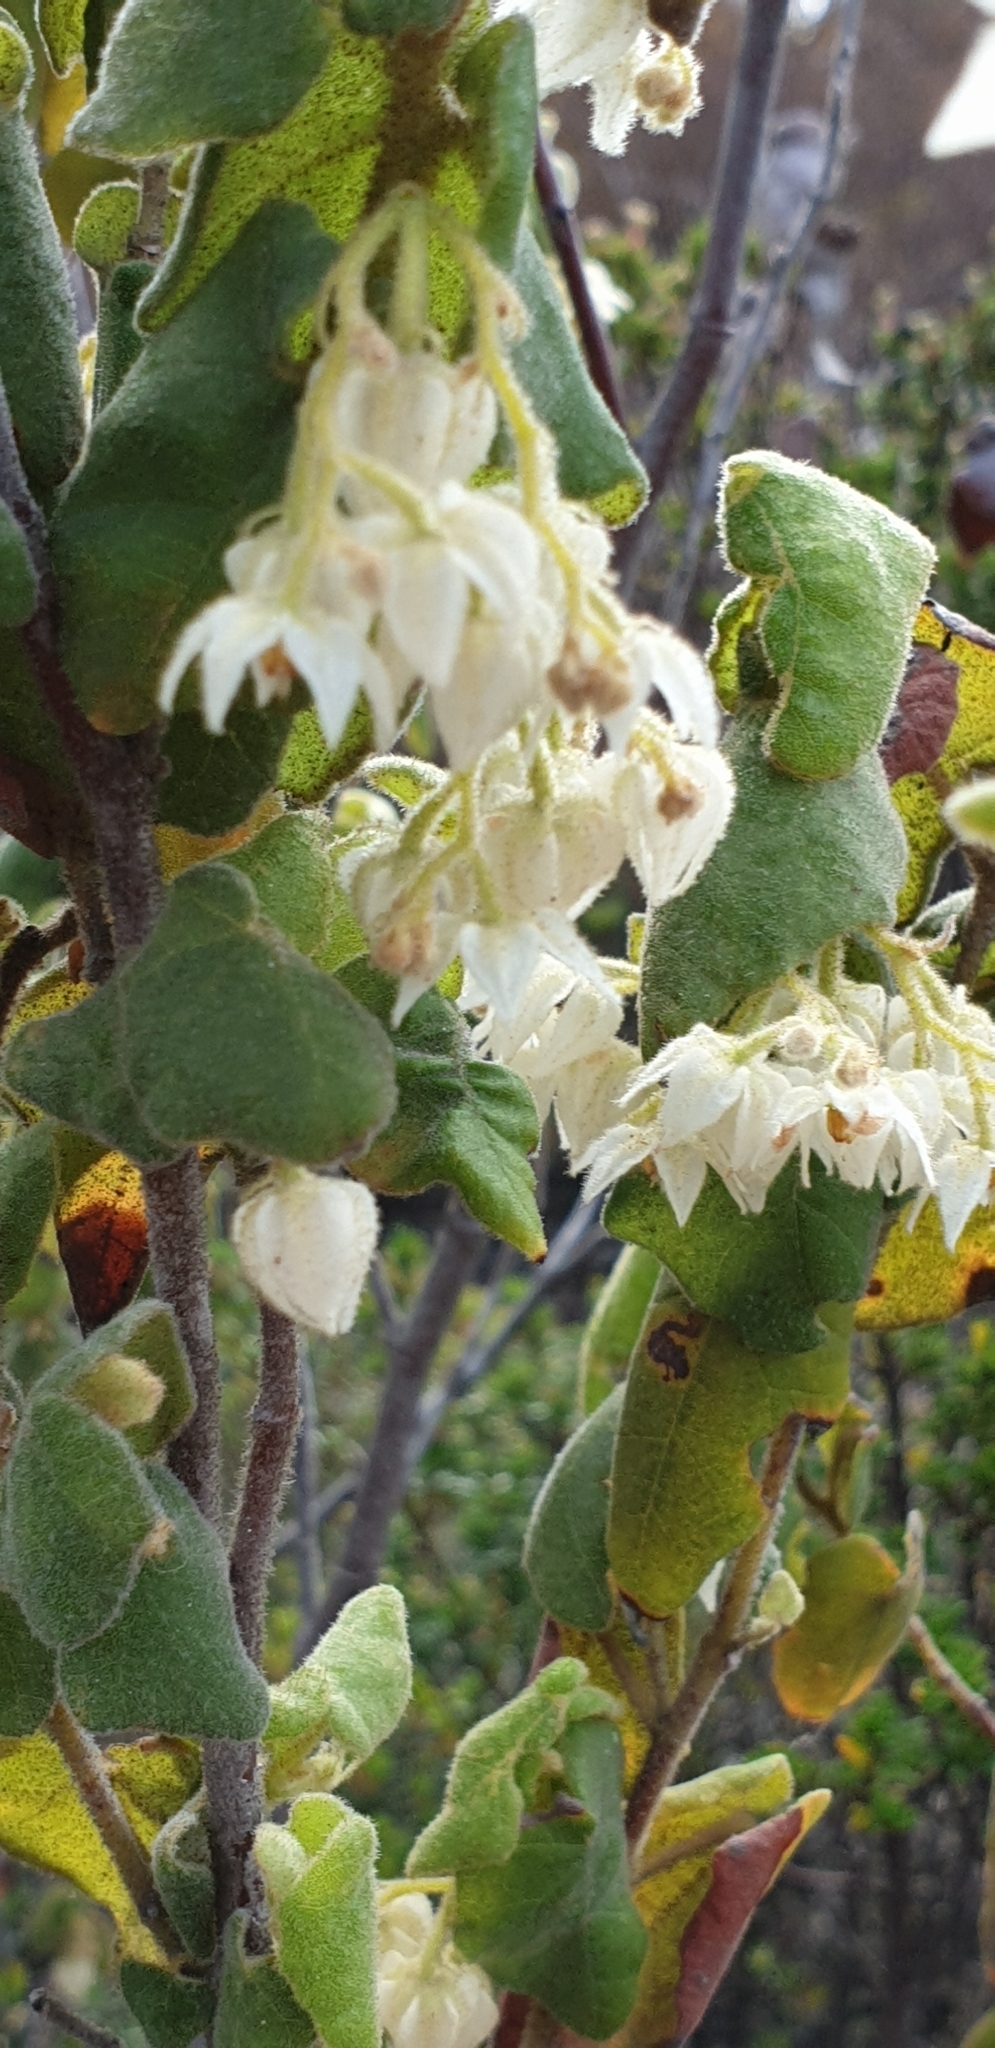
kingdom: Plantae
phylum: Tracheophyta
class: Magnoliopsida
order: Malvales
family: Malvaceae
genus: Lasiopetalum
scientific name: Lasiopetalum schulzenii
